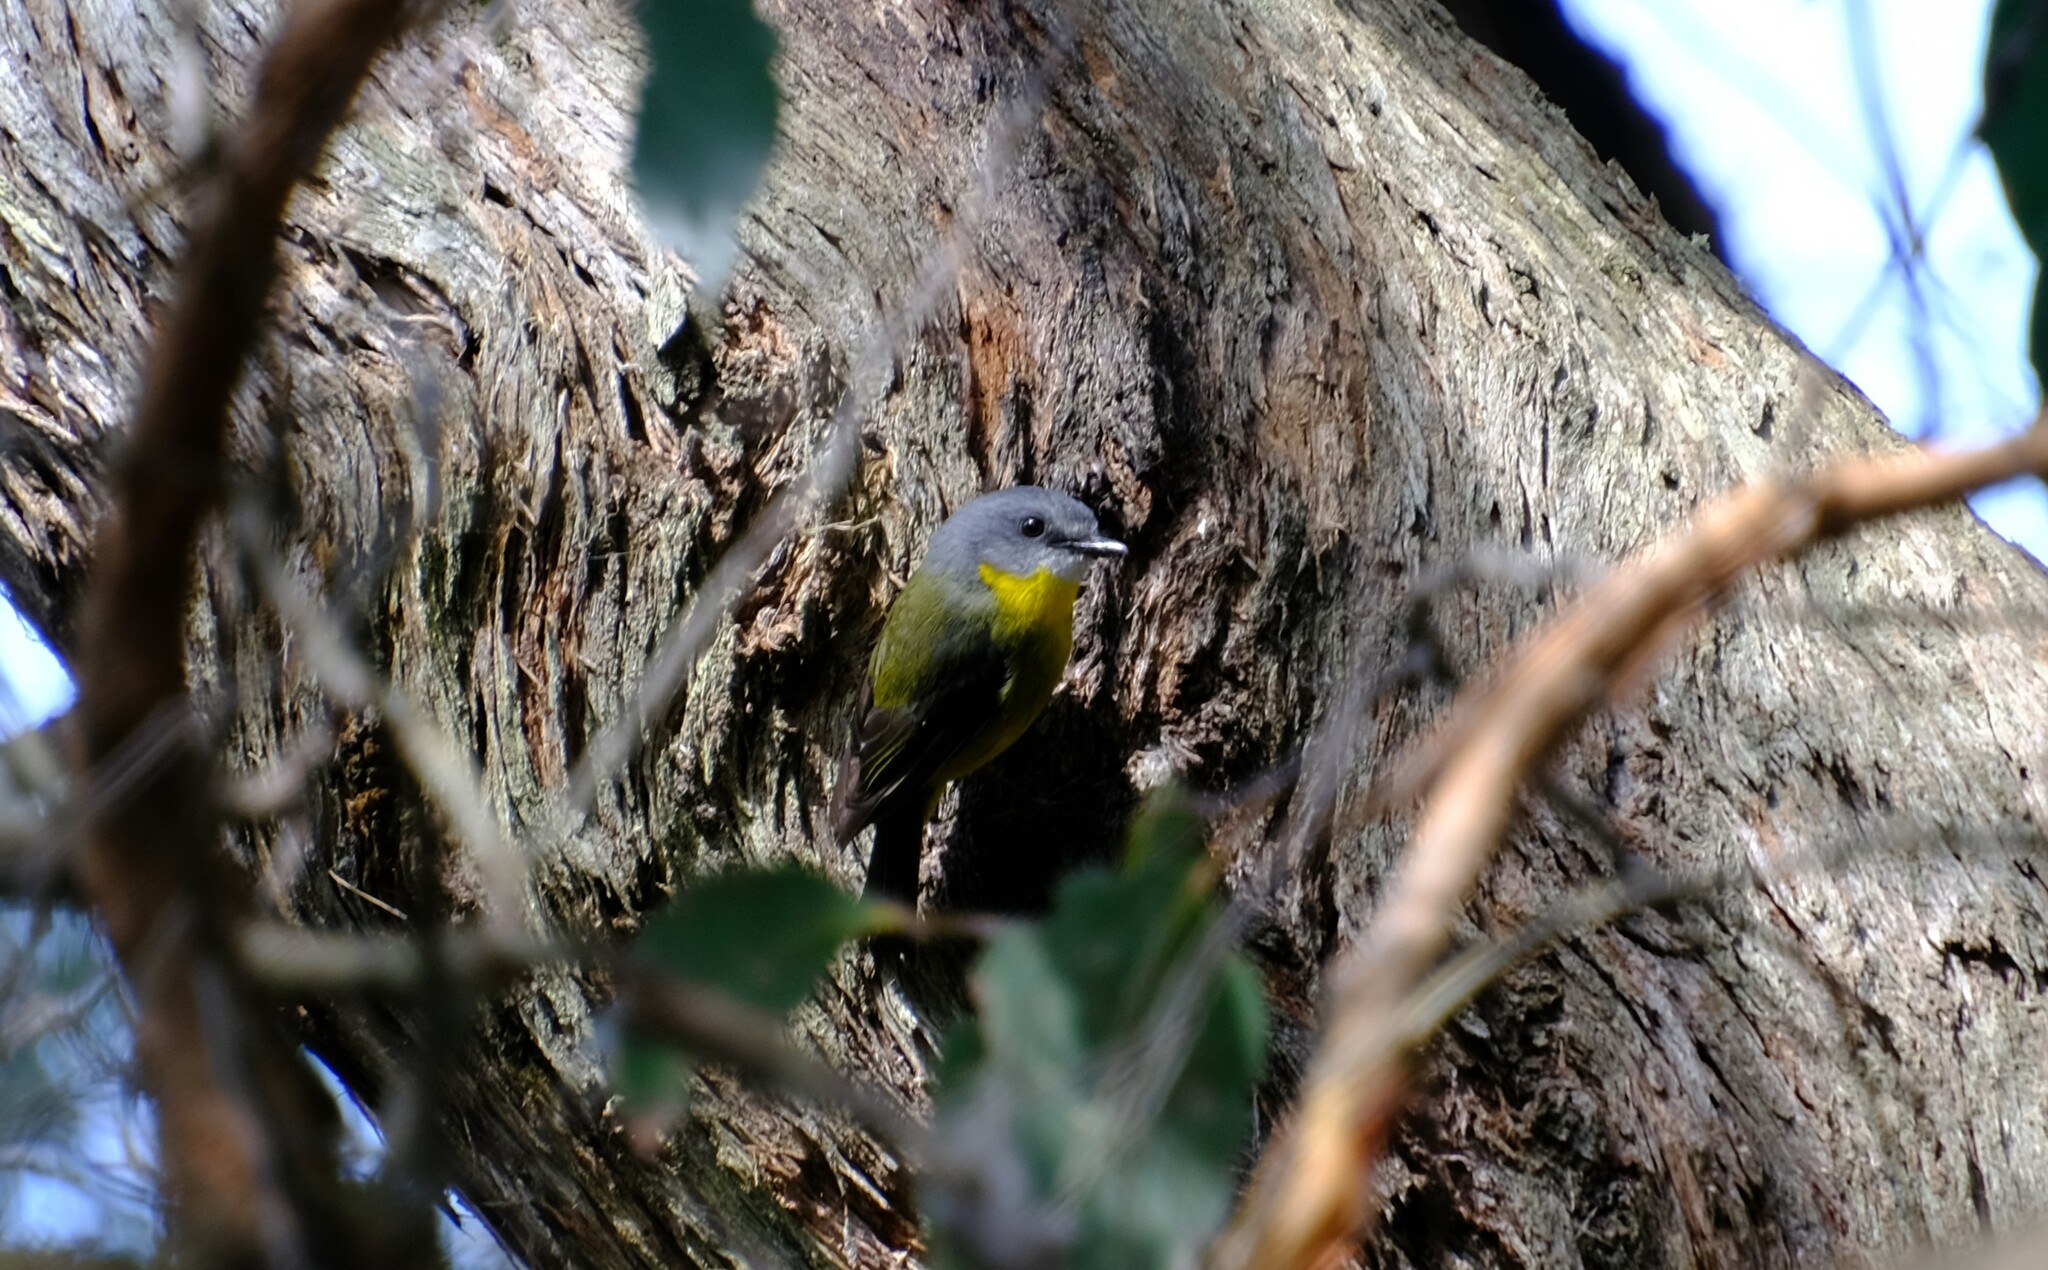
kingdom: Animalia
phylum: Chordata
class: Aves
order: Passeriformes
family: Petroicidae
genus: Eopsaltria
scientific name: Eopsaltria australis
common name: Eastern yellow robin
